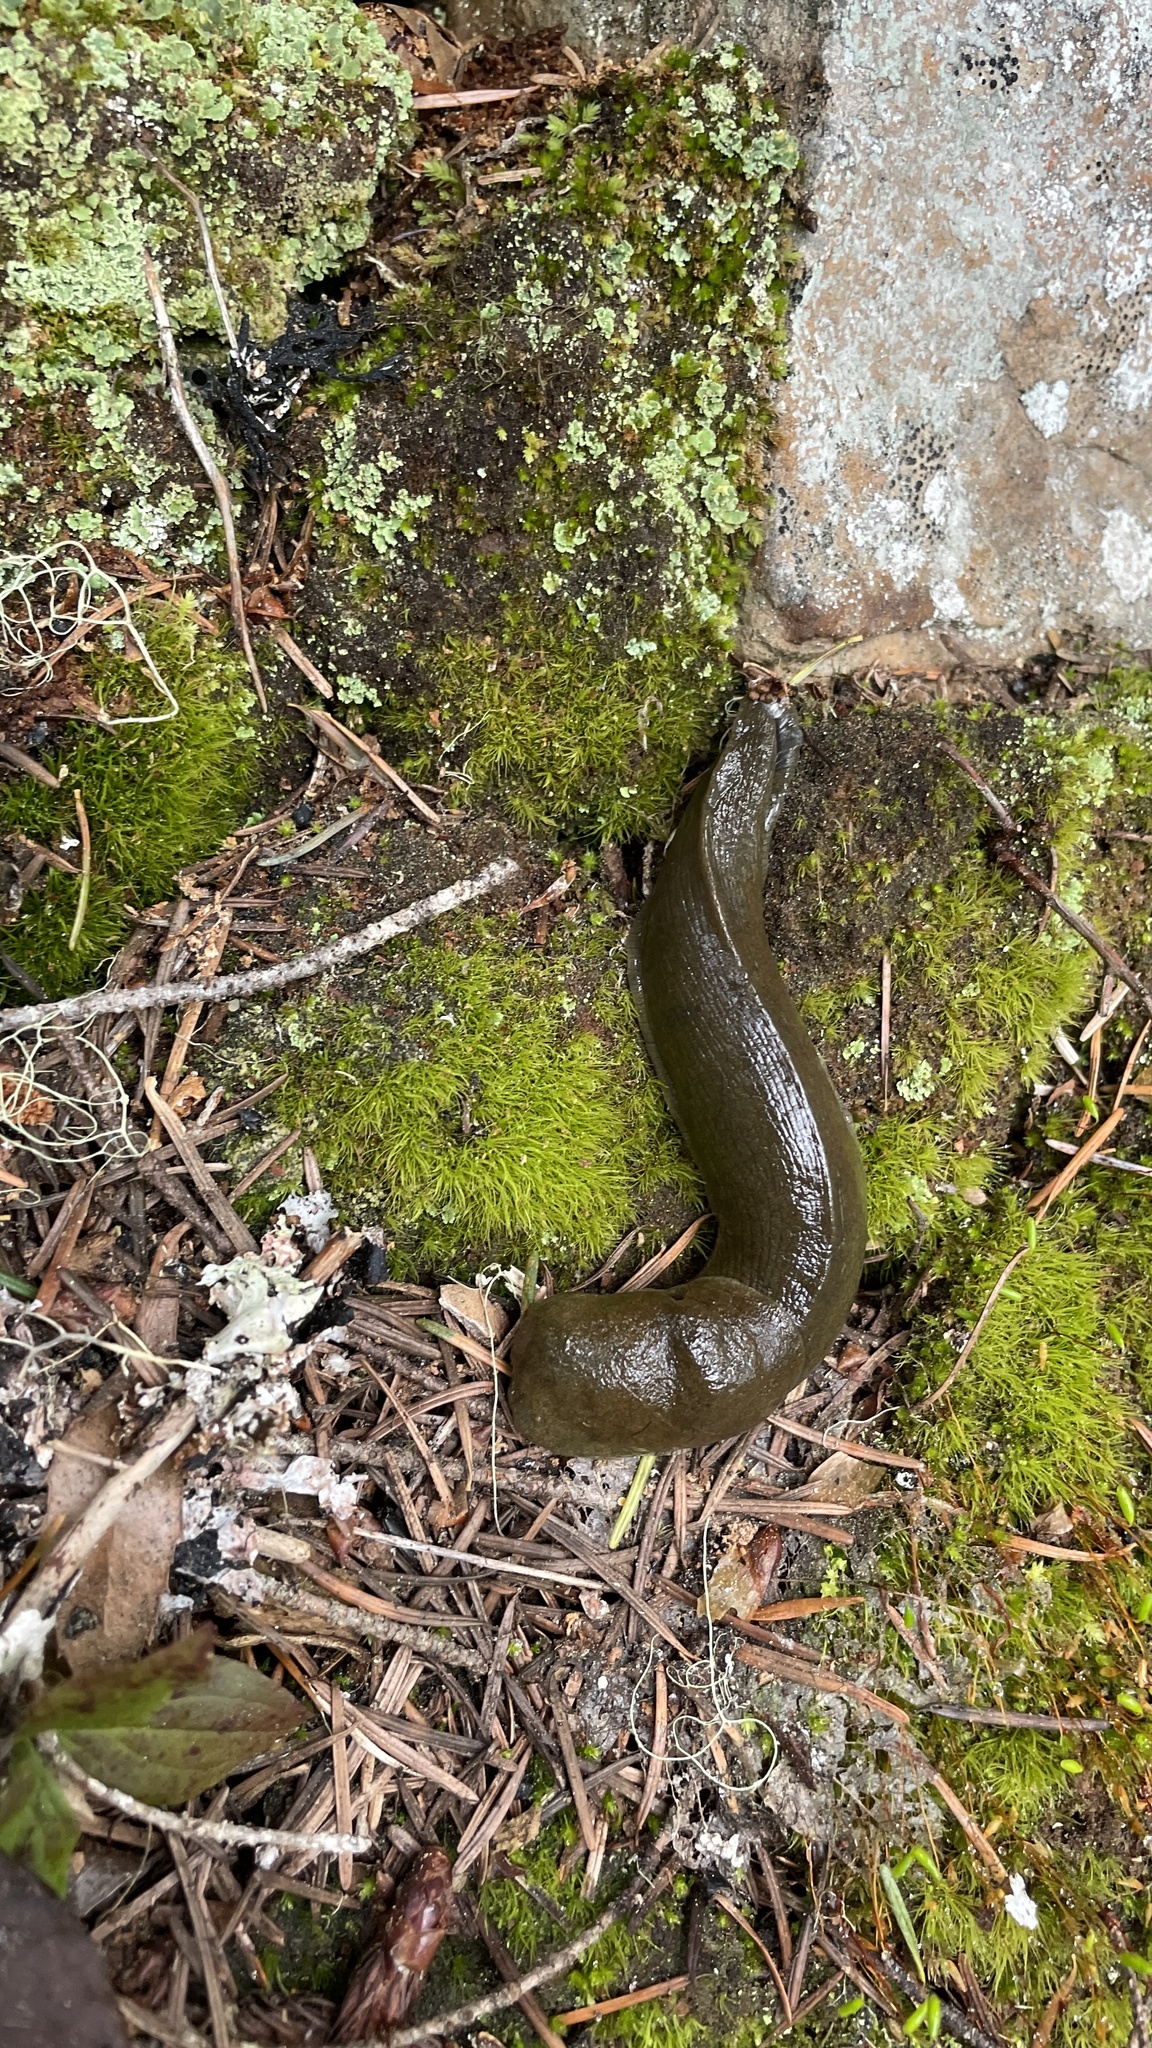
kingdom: Animalia
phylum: Mollusca
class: Gastropoda
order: Stylommatophora
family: Ariolimacidae
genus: Ariolimax
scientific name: Ariolimax columbianus
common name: Pacific banana slug
